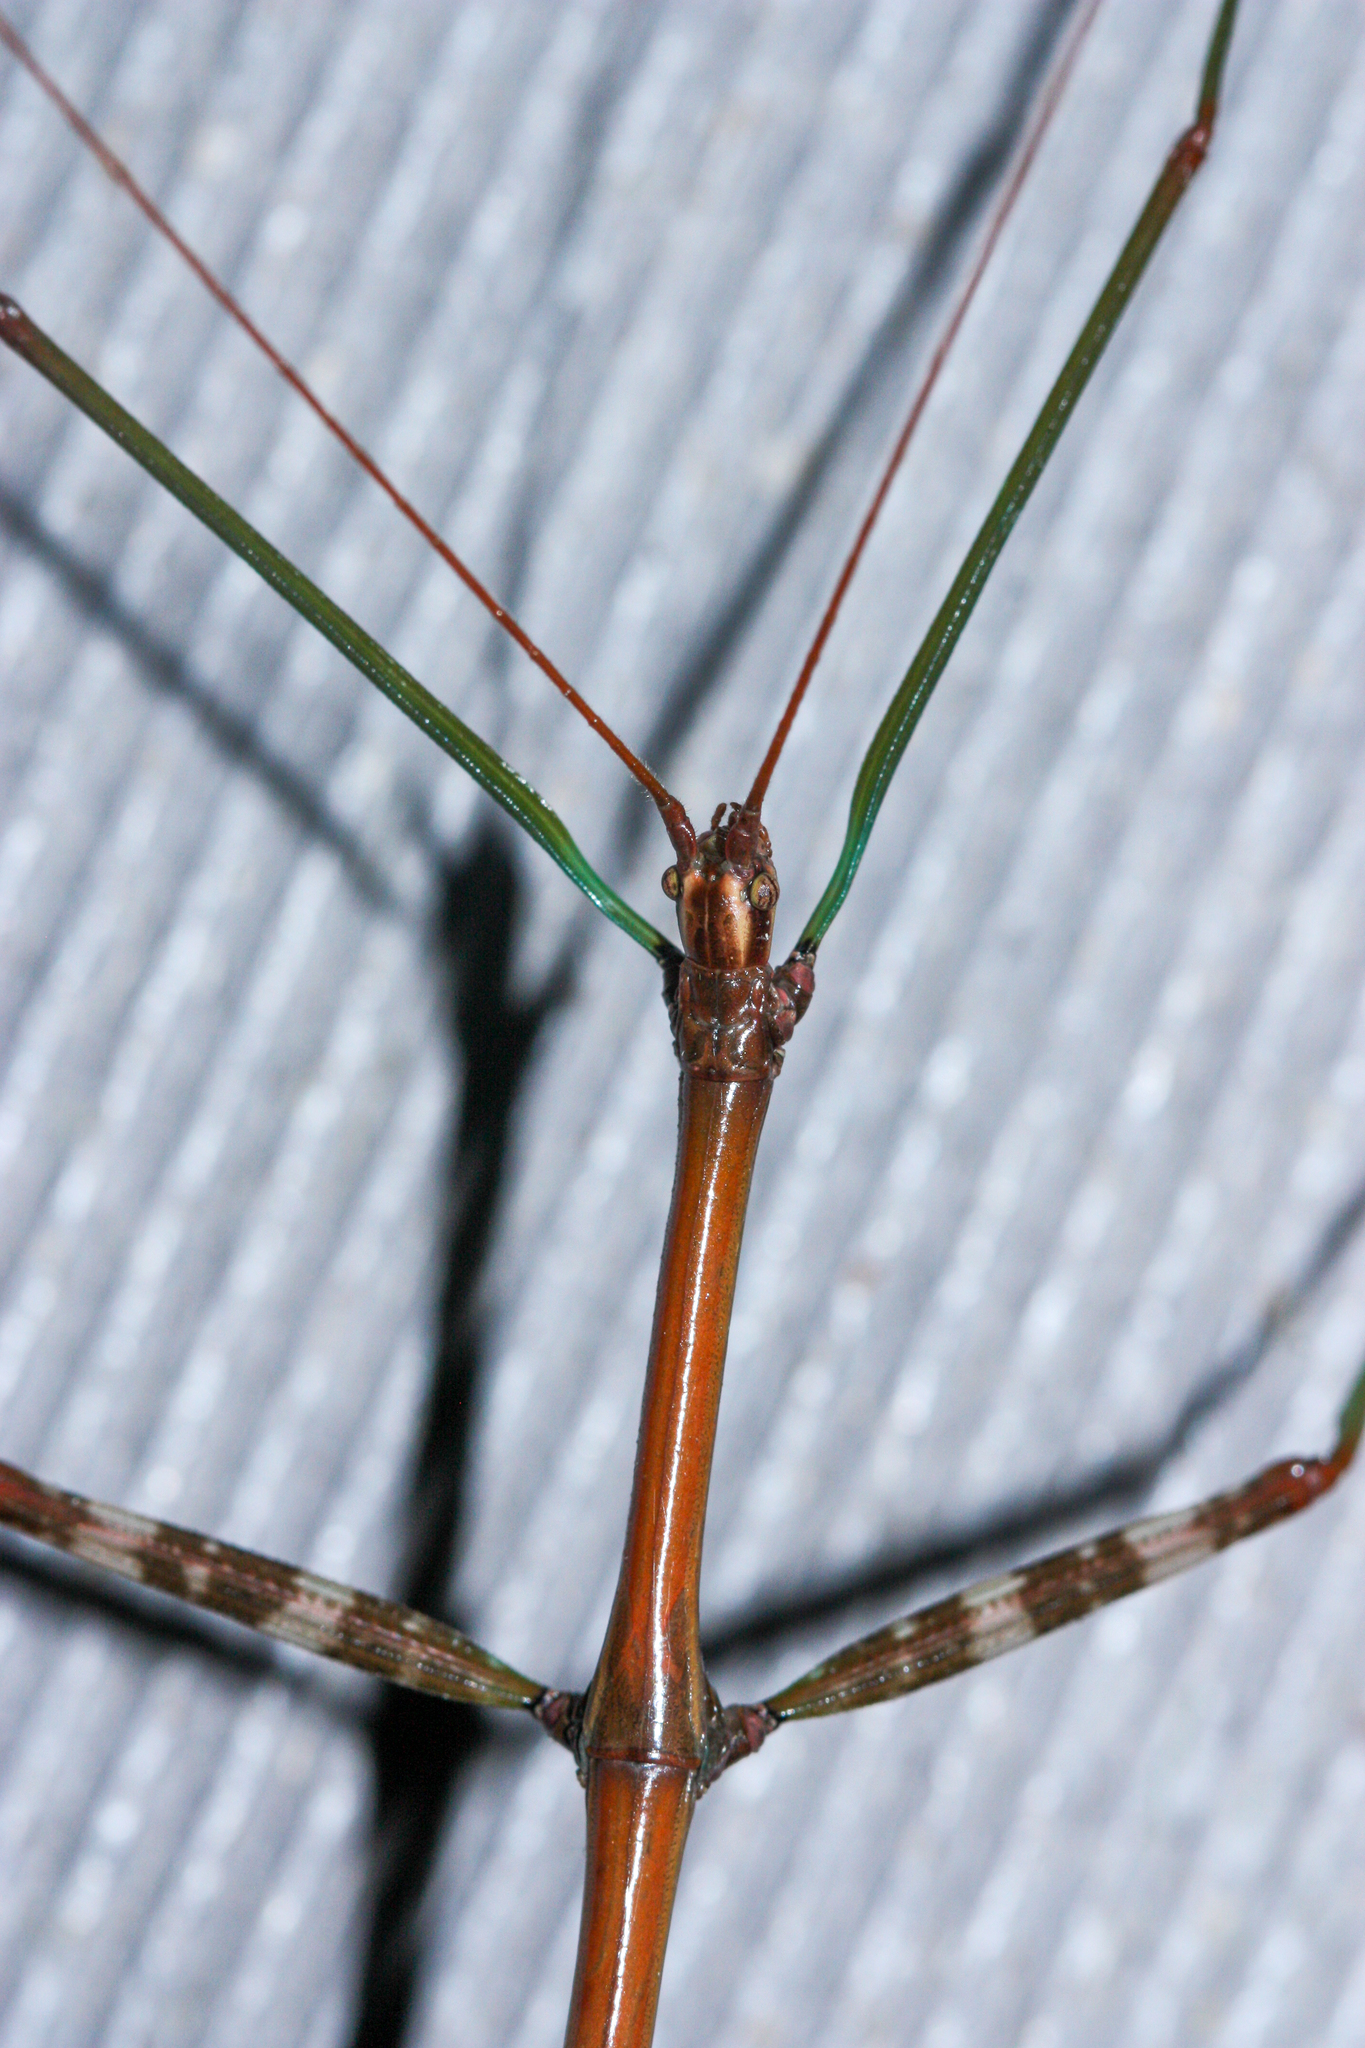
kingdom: Animalia
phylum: Arthropoda
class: Insecta
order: Phasmida
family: Diapheromeridae
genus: Diapheromera
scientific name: Diapheromera femorata
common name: Common american walkingstick
